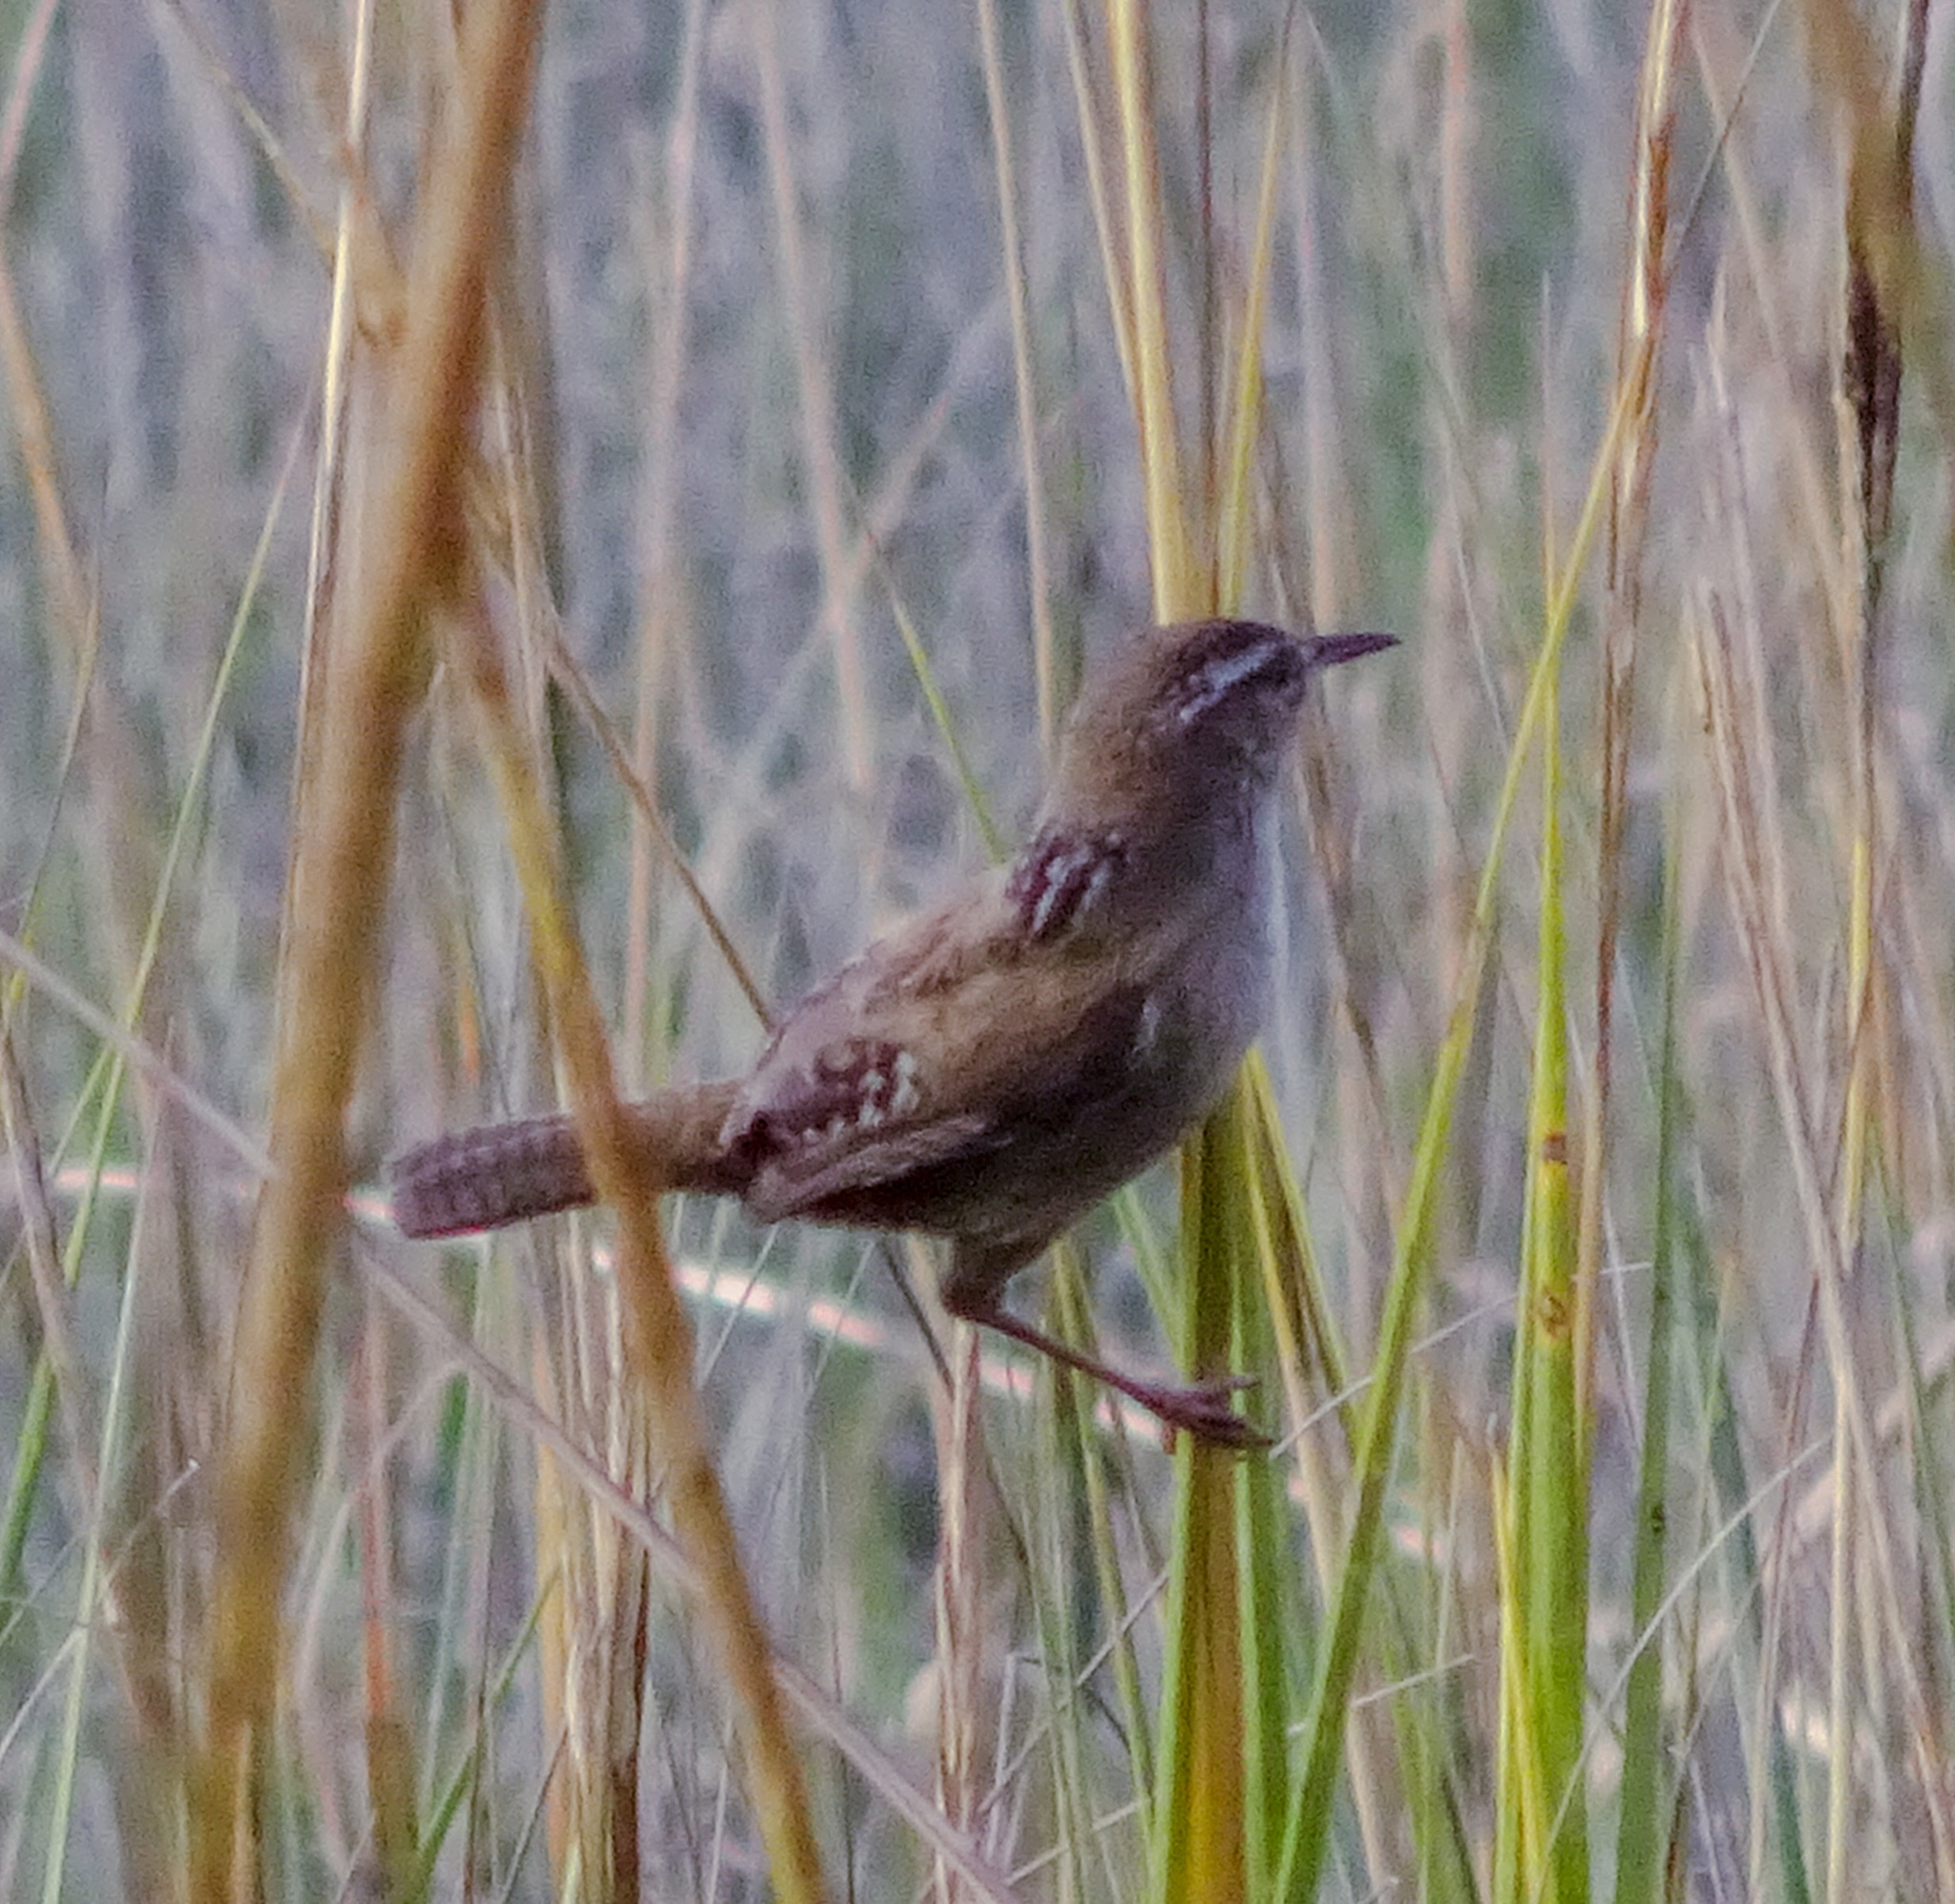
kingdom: Animalia
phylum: Chordata
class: Aves
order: Passeriformes
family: Troglodytidae
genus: Cistothorus
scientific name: Cistothorus palustris
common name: Marsh wren
